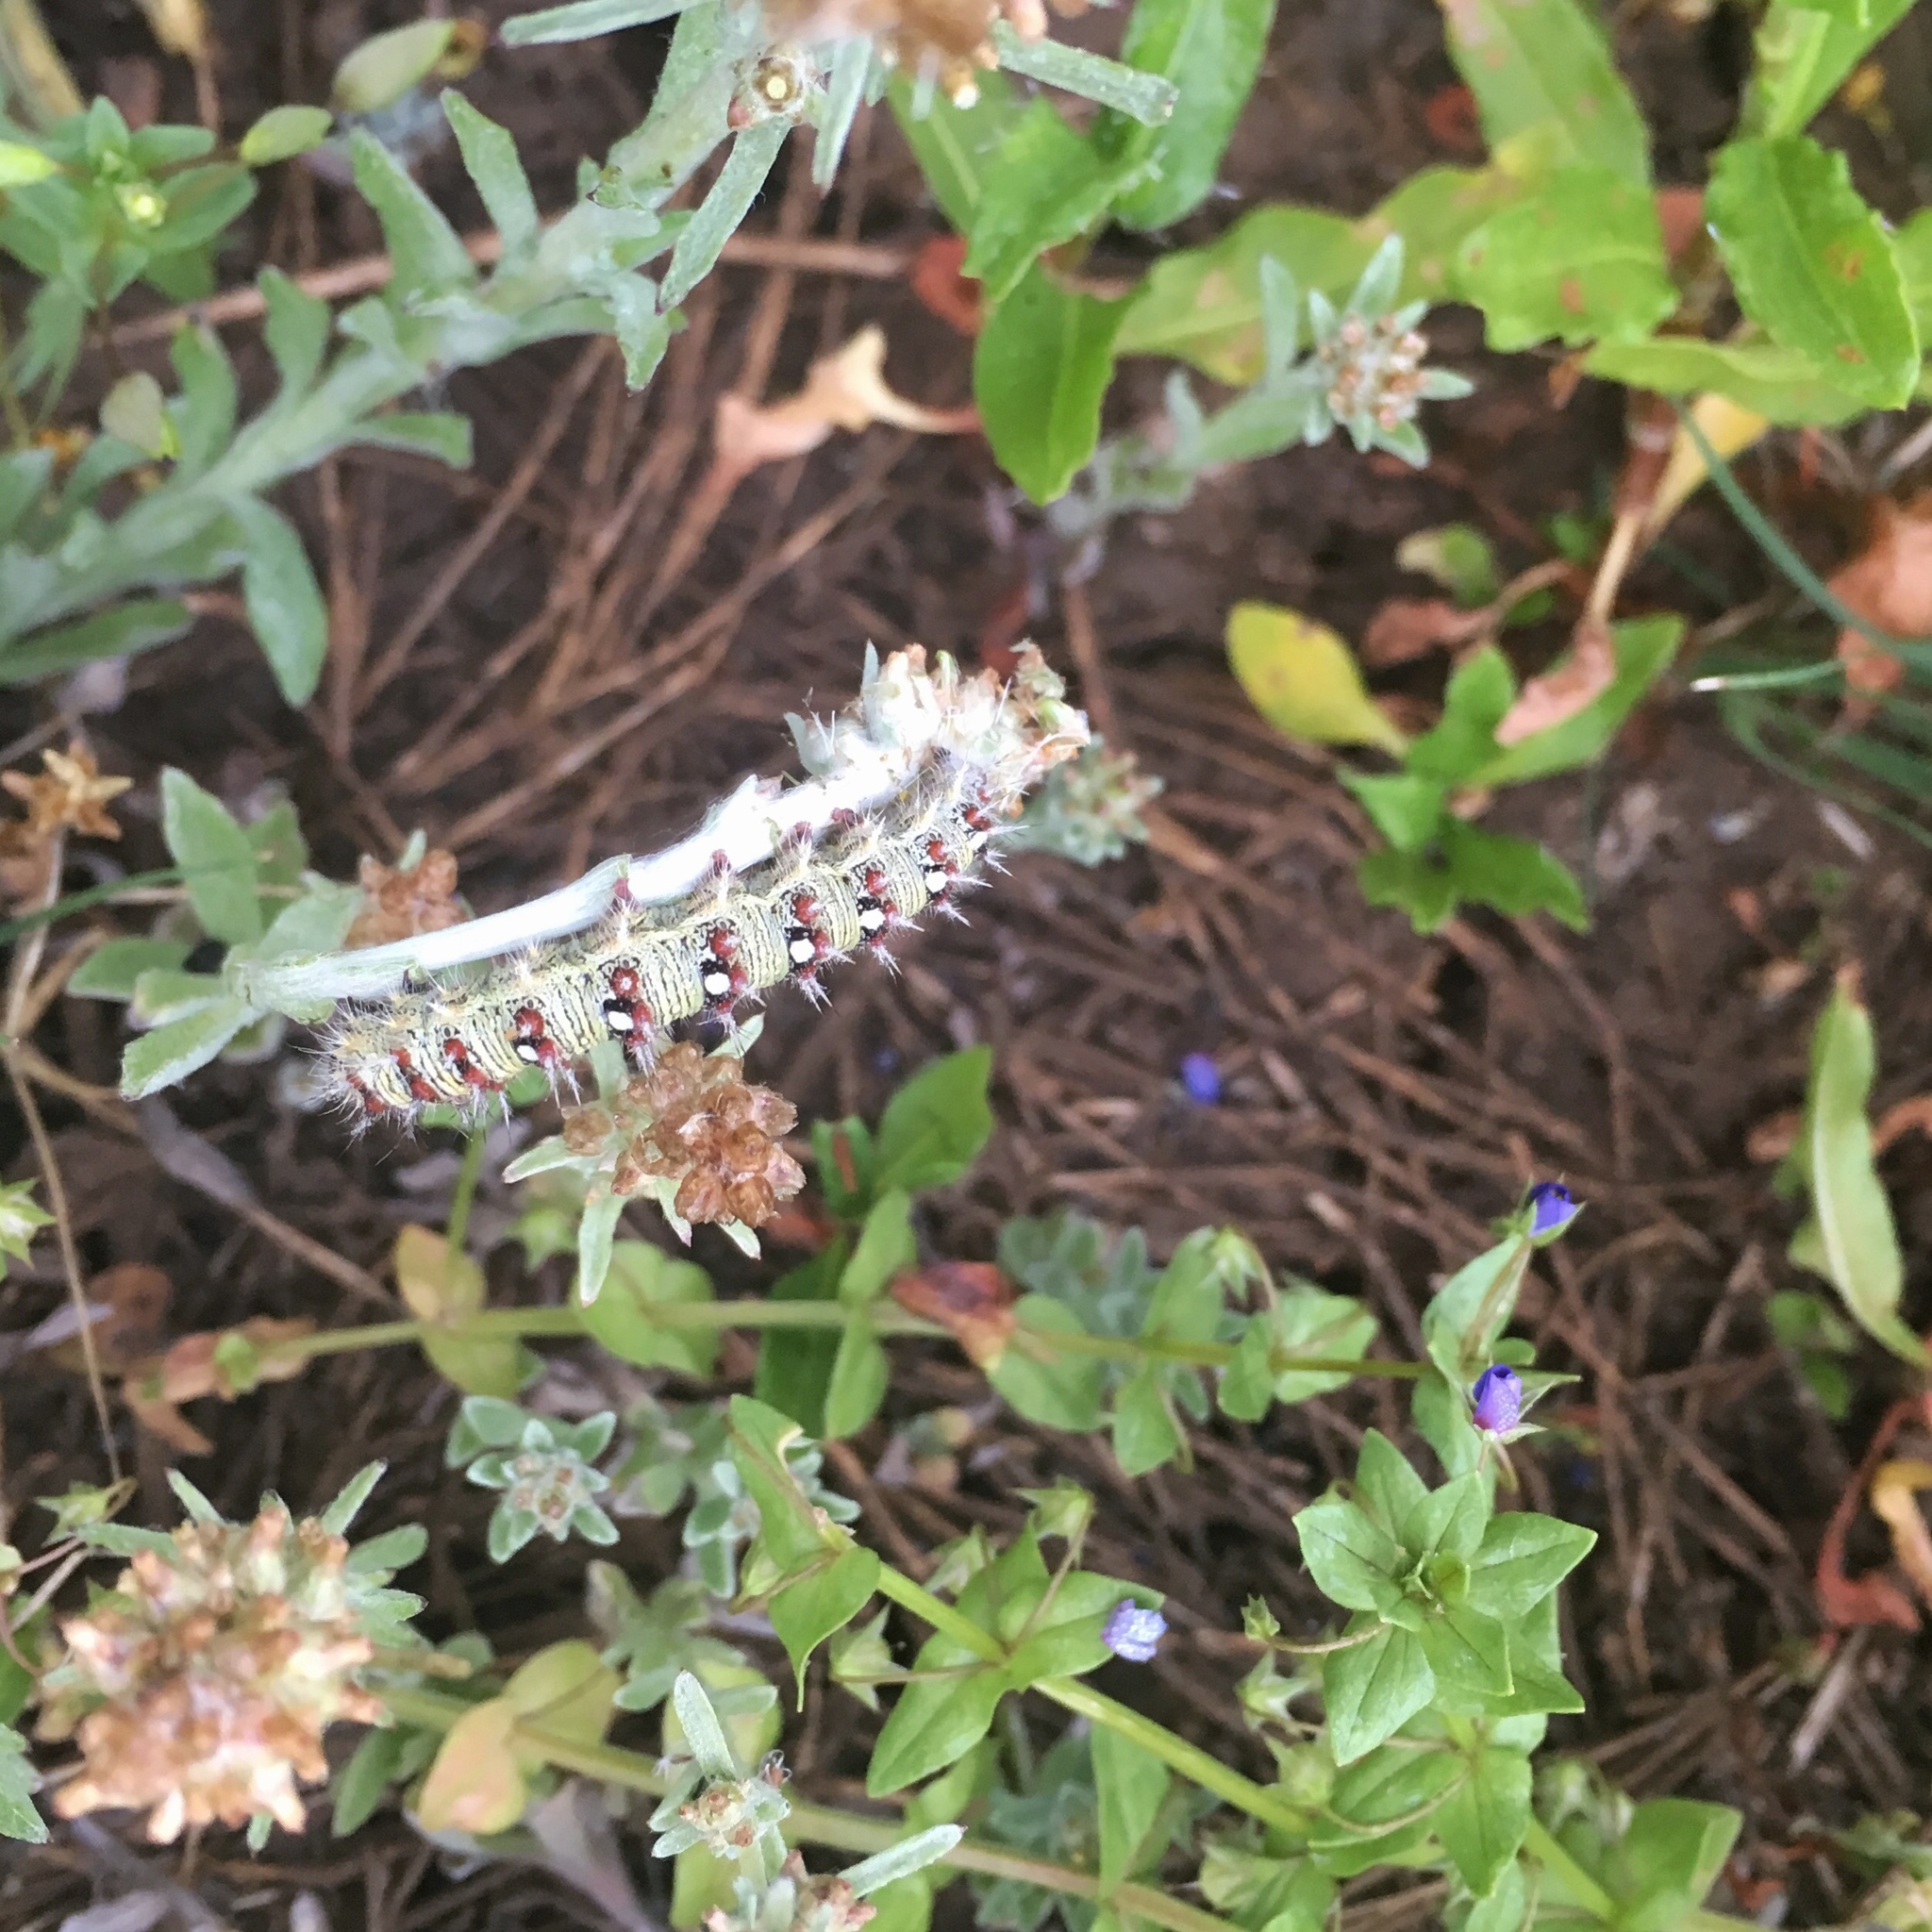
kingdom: Animalia
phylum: Arthropoda
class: Insecta
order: Lepidoptera
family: Nymphalidae
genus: Vanessa
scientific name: Vanessa virginiensis
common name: American lady
